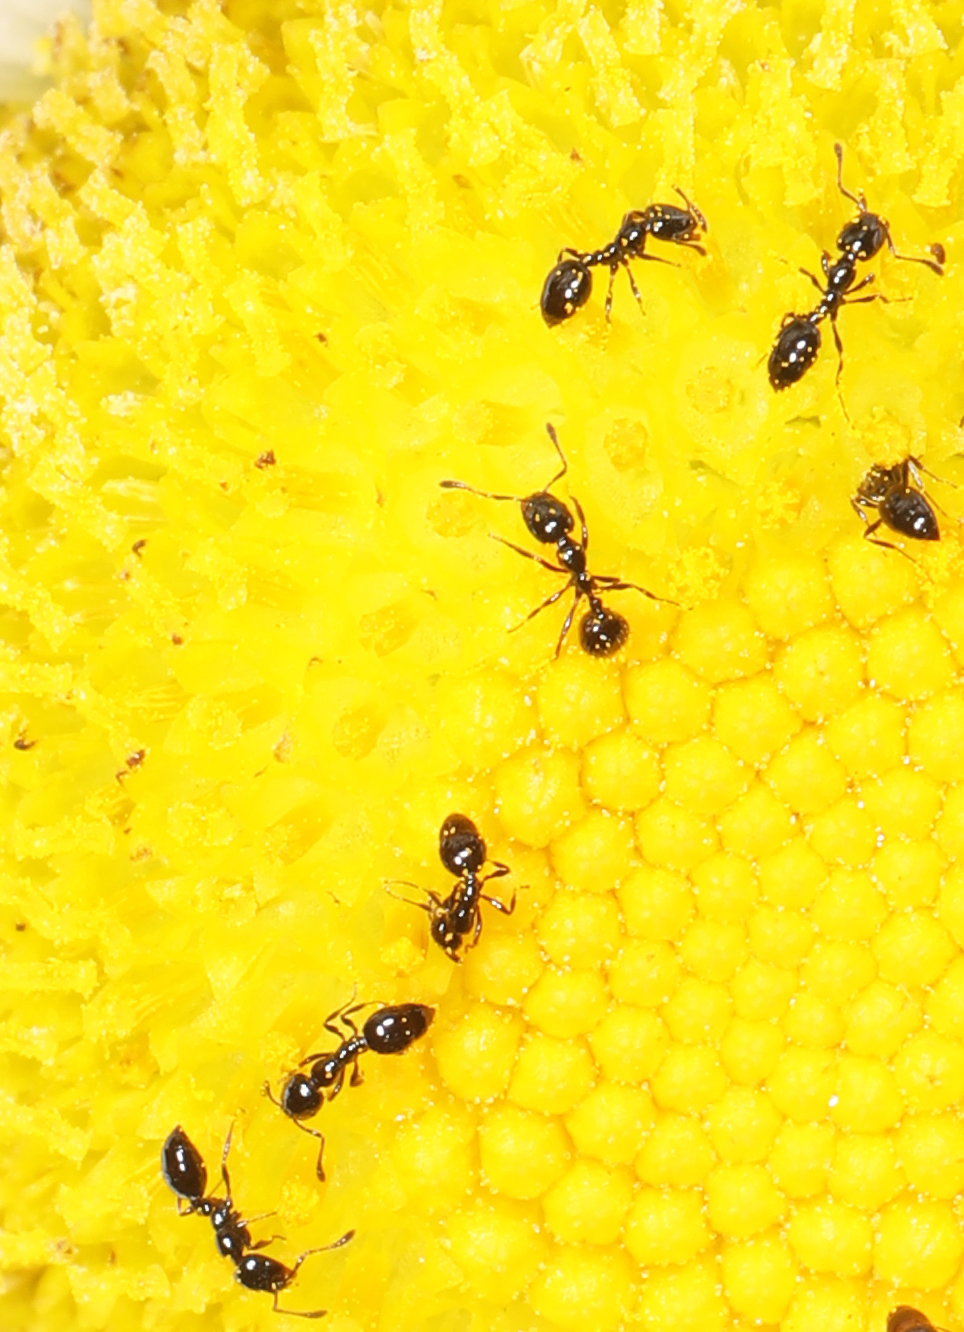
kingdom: Animalia
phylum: Arthropoda
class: Insecta
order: Hymenoptera
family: Formicidae
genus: Monomorium
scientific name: Monomorium minimum
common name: Little black ant
